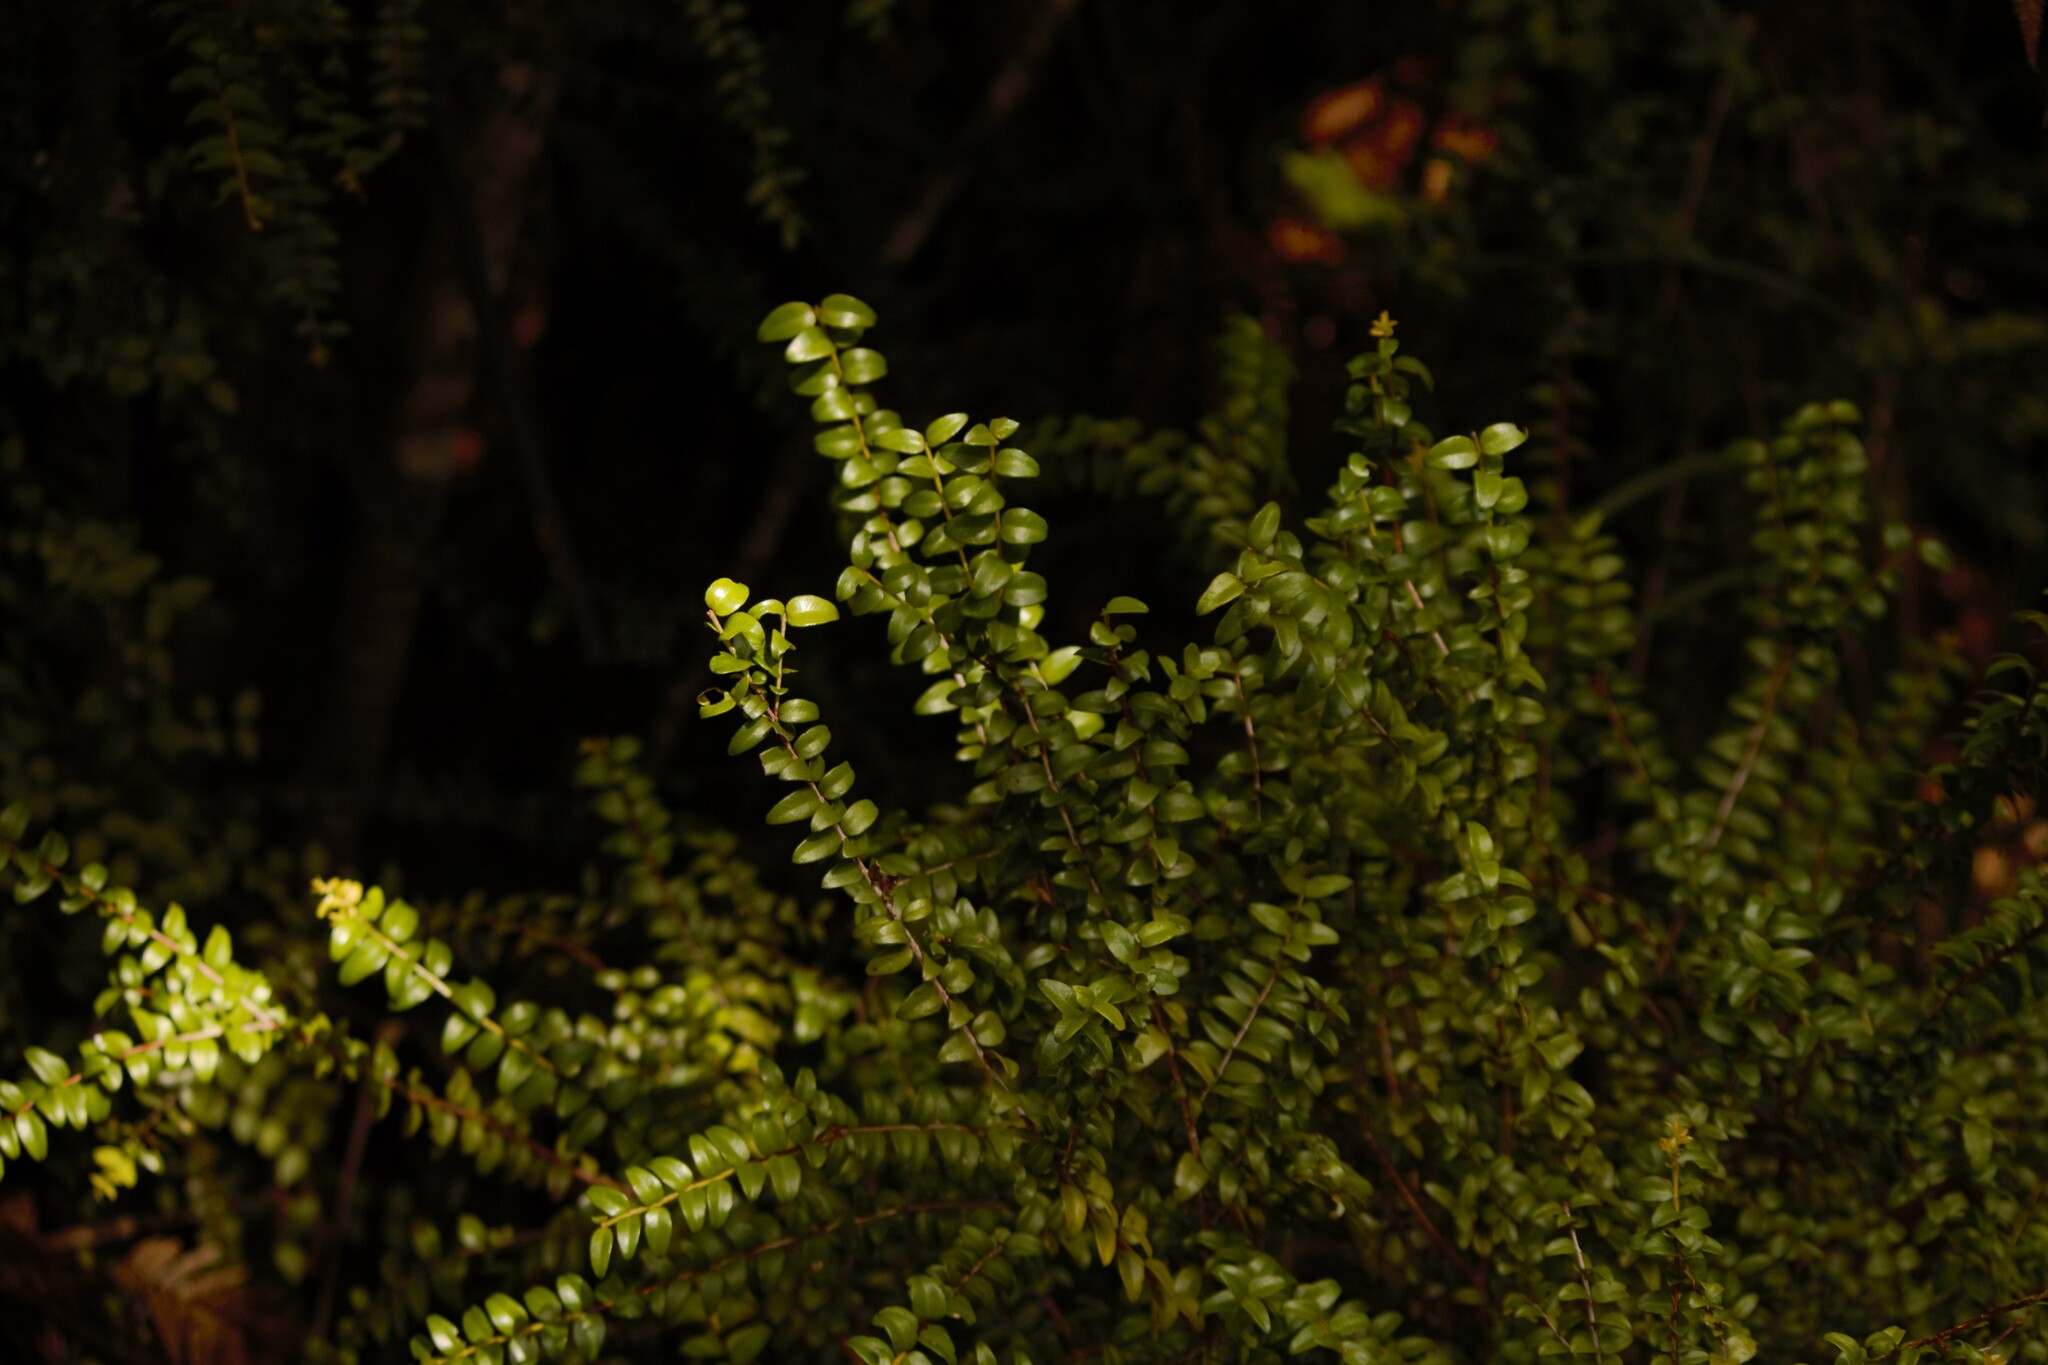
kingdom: Plantae
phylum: Tracheophyta
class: Magnoliopsida
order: Myrtales
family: Myrtaceae
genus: Metrosideros
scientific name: Metrosideros perforata
